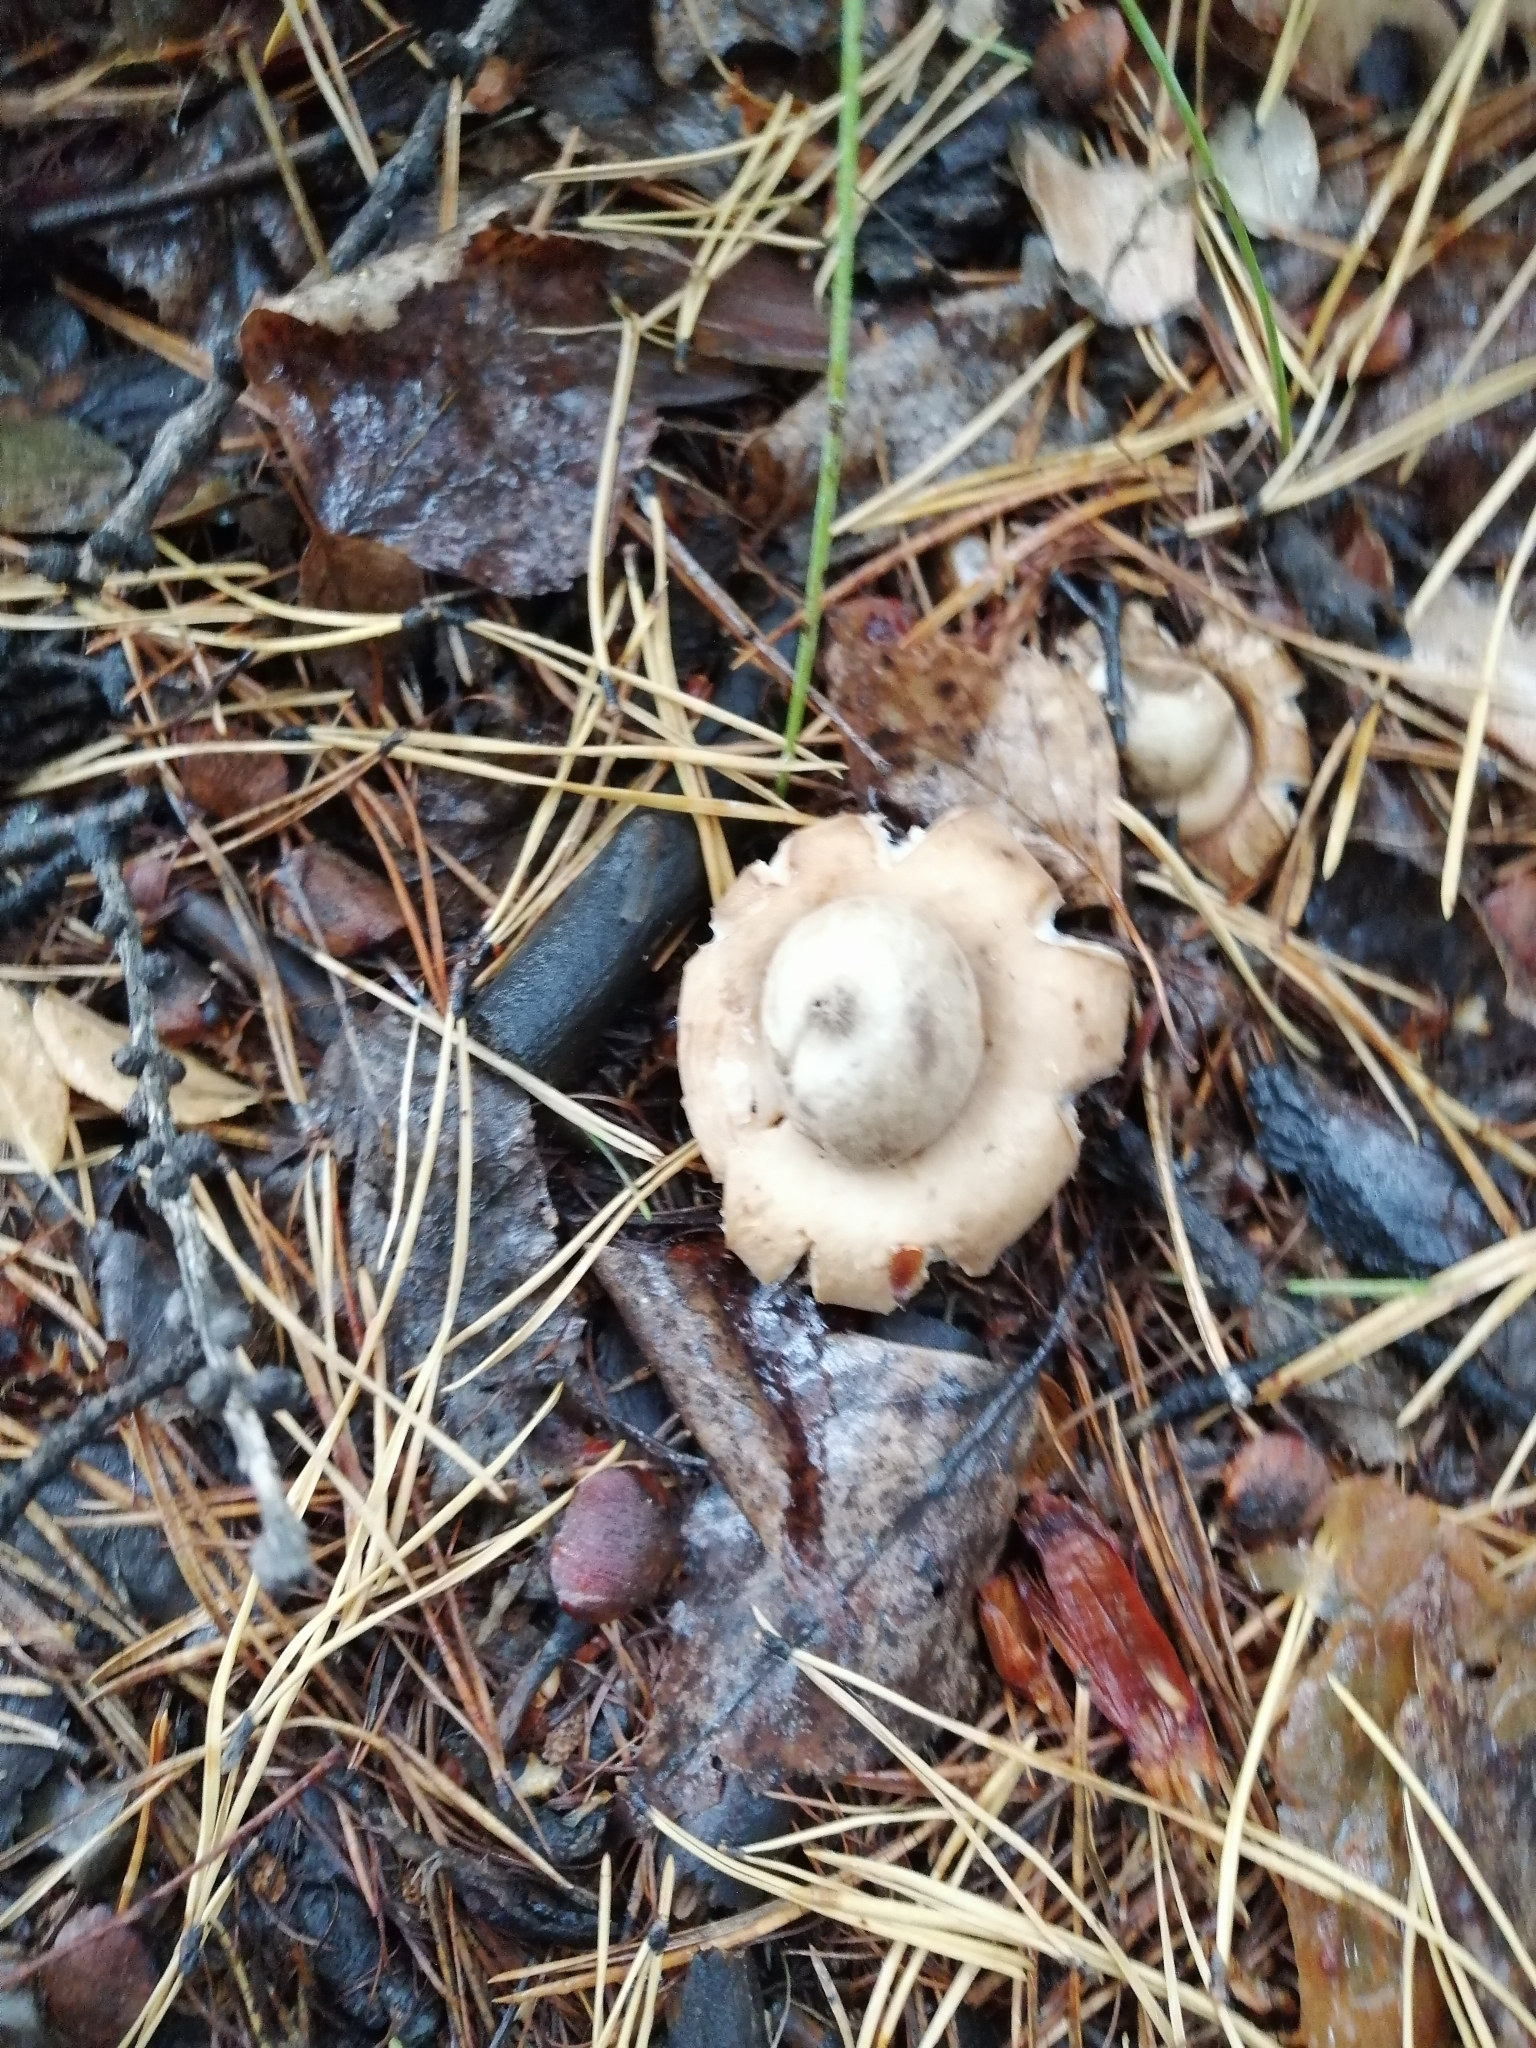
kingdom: Fungi
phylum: Basidiomycota
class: Agaricomycetes
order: Geastrales
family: Geastraceae
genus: Geastrum
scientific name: Geastrum fimbriatum
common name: Sessile earthstar
